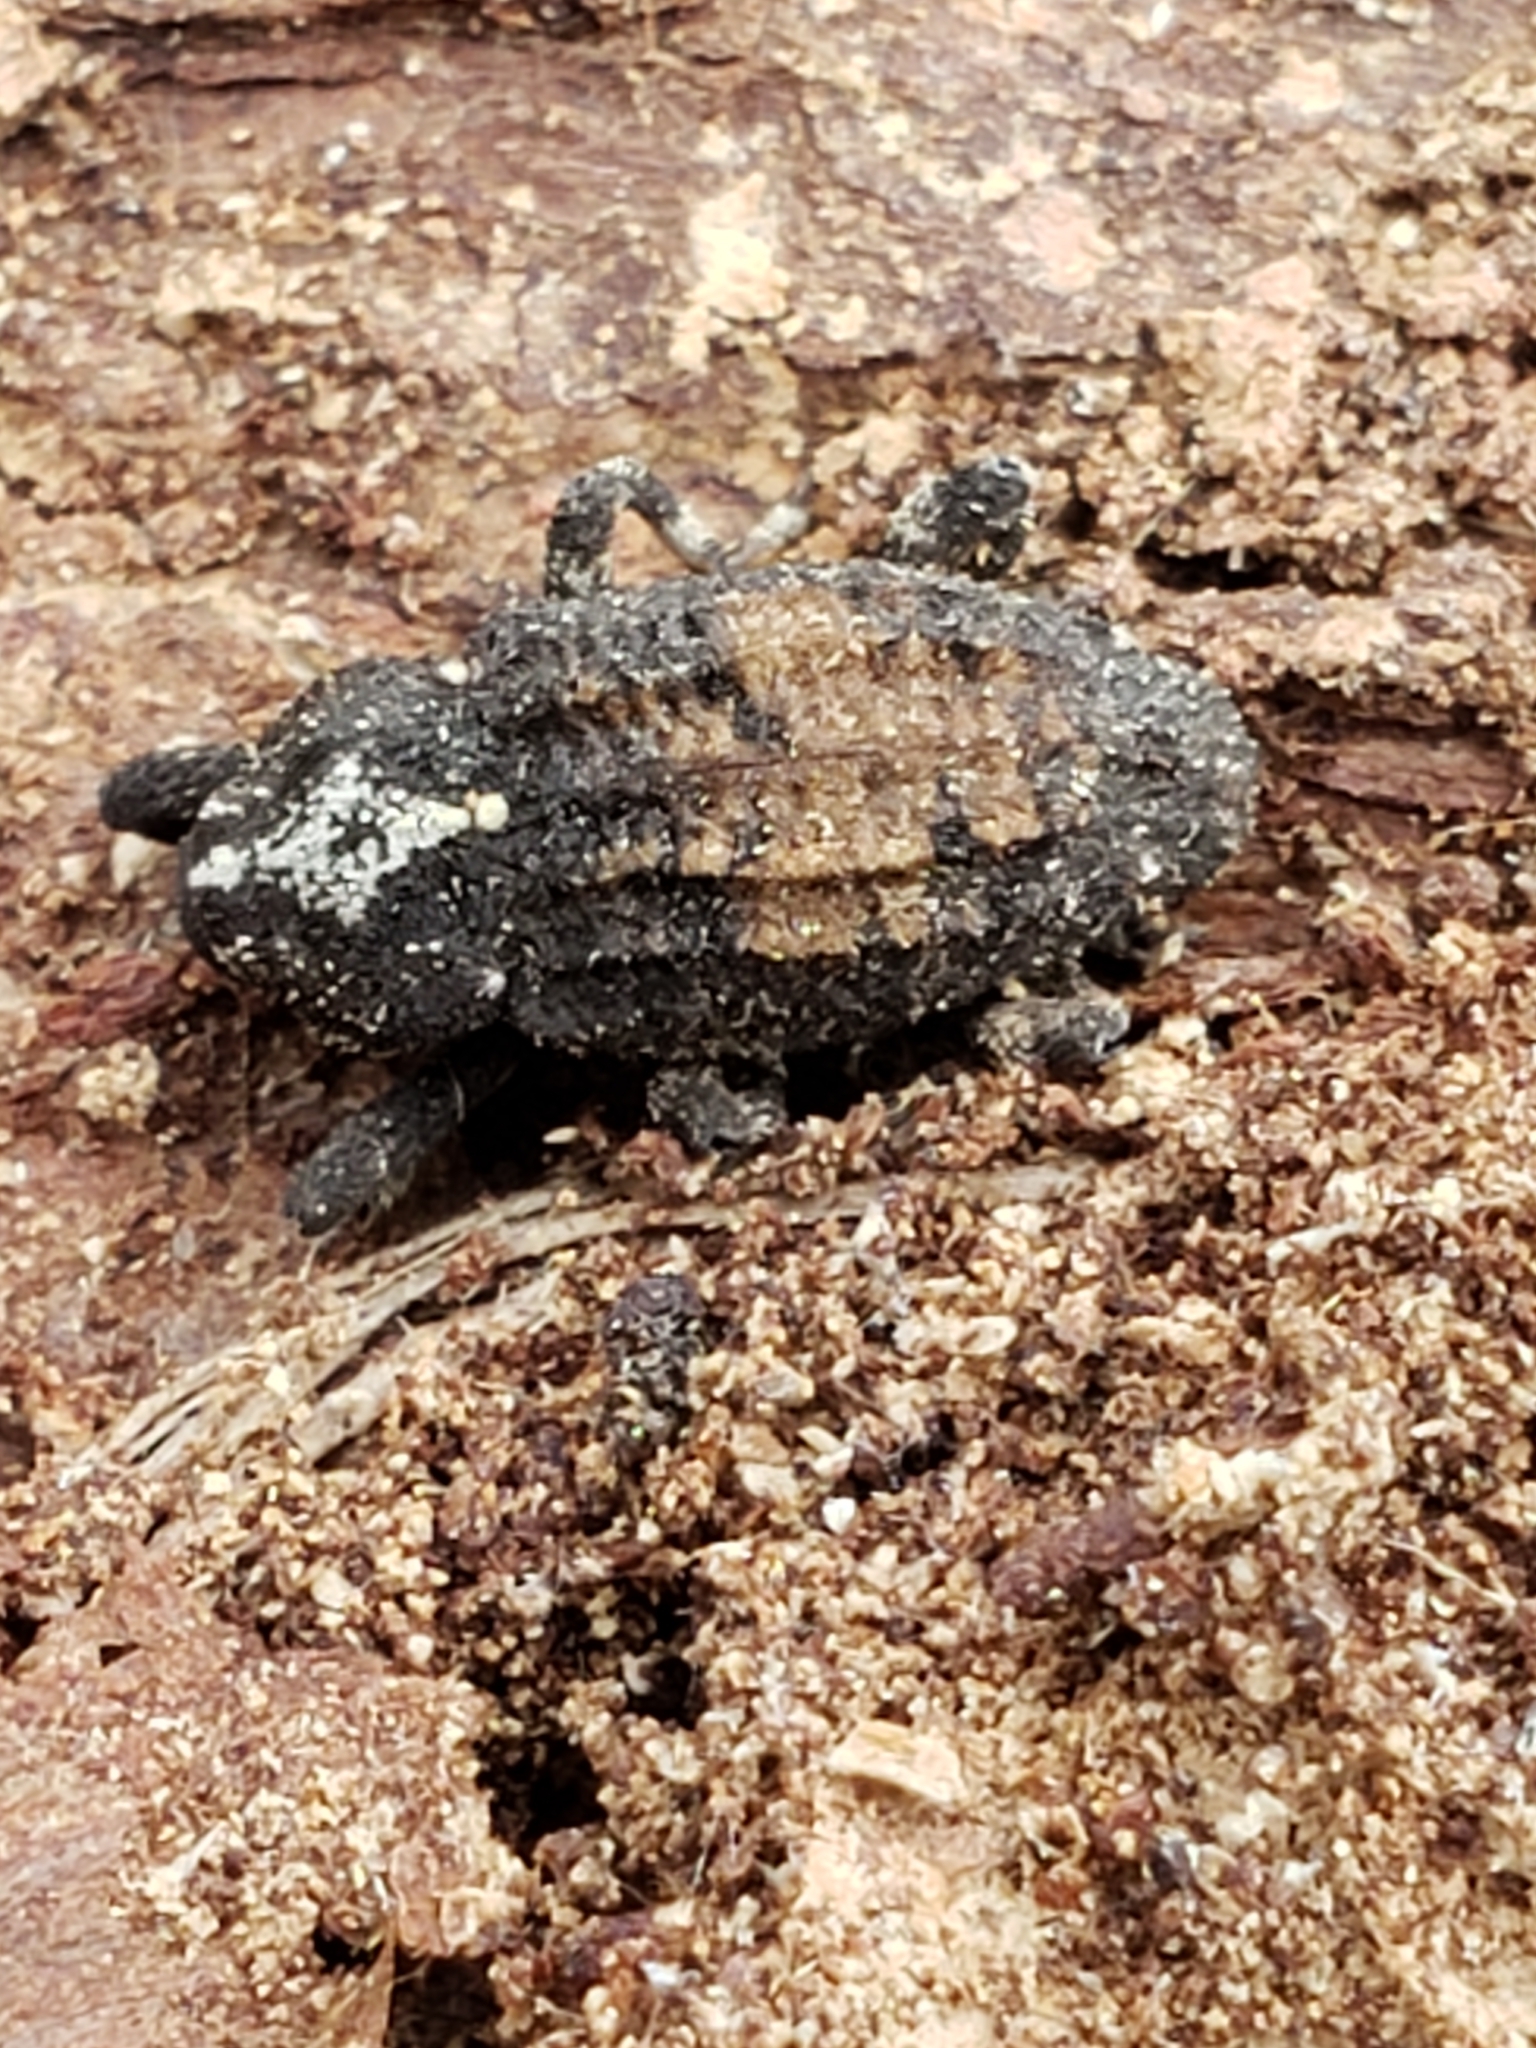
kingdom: Animalia
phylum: Arthropoda
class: Insecta
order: Coleoptera
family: Curculionidae
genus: Cophes
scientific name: Cophes obtentus
